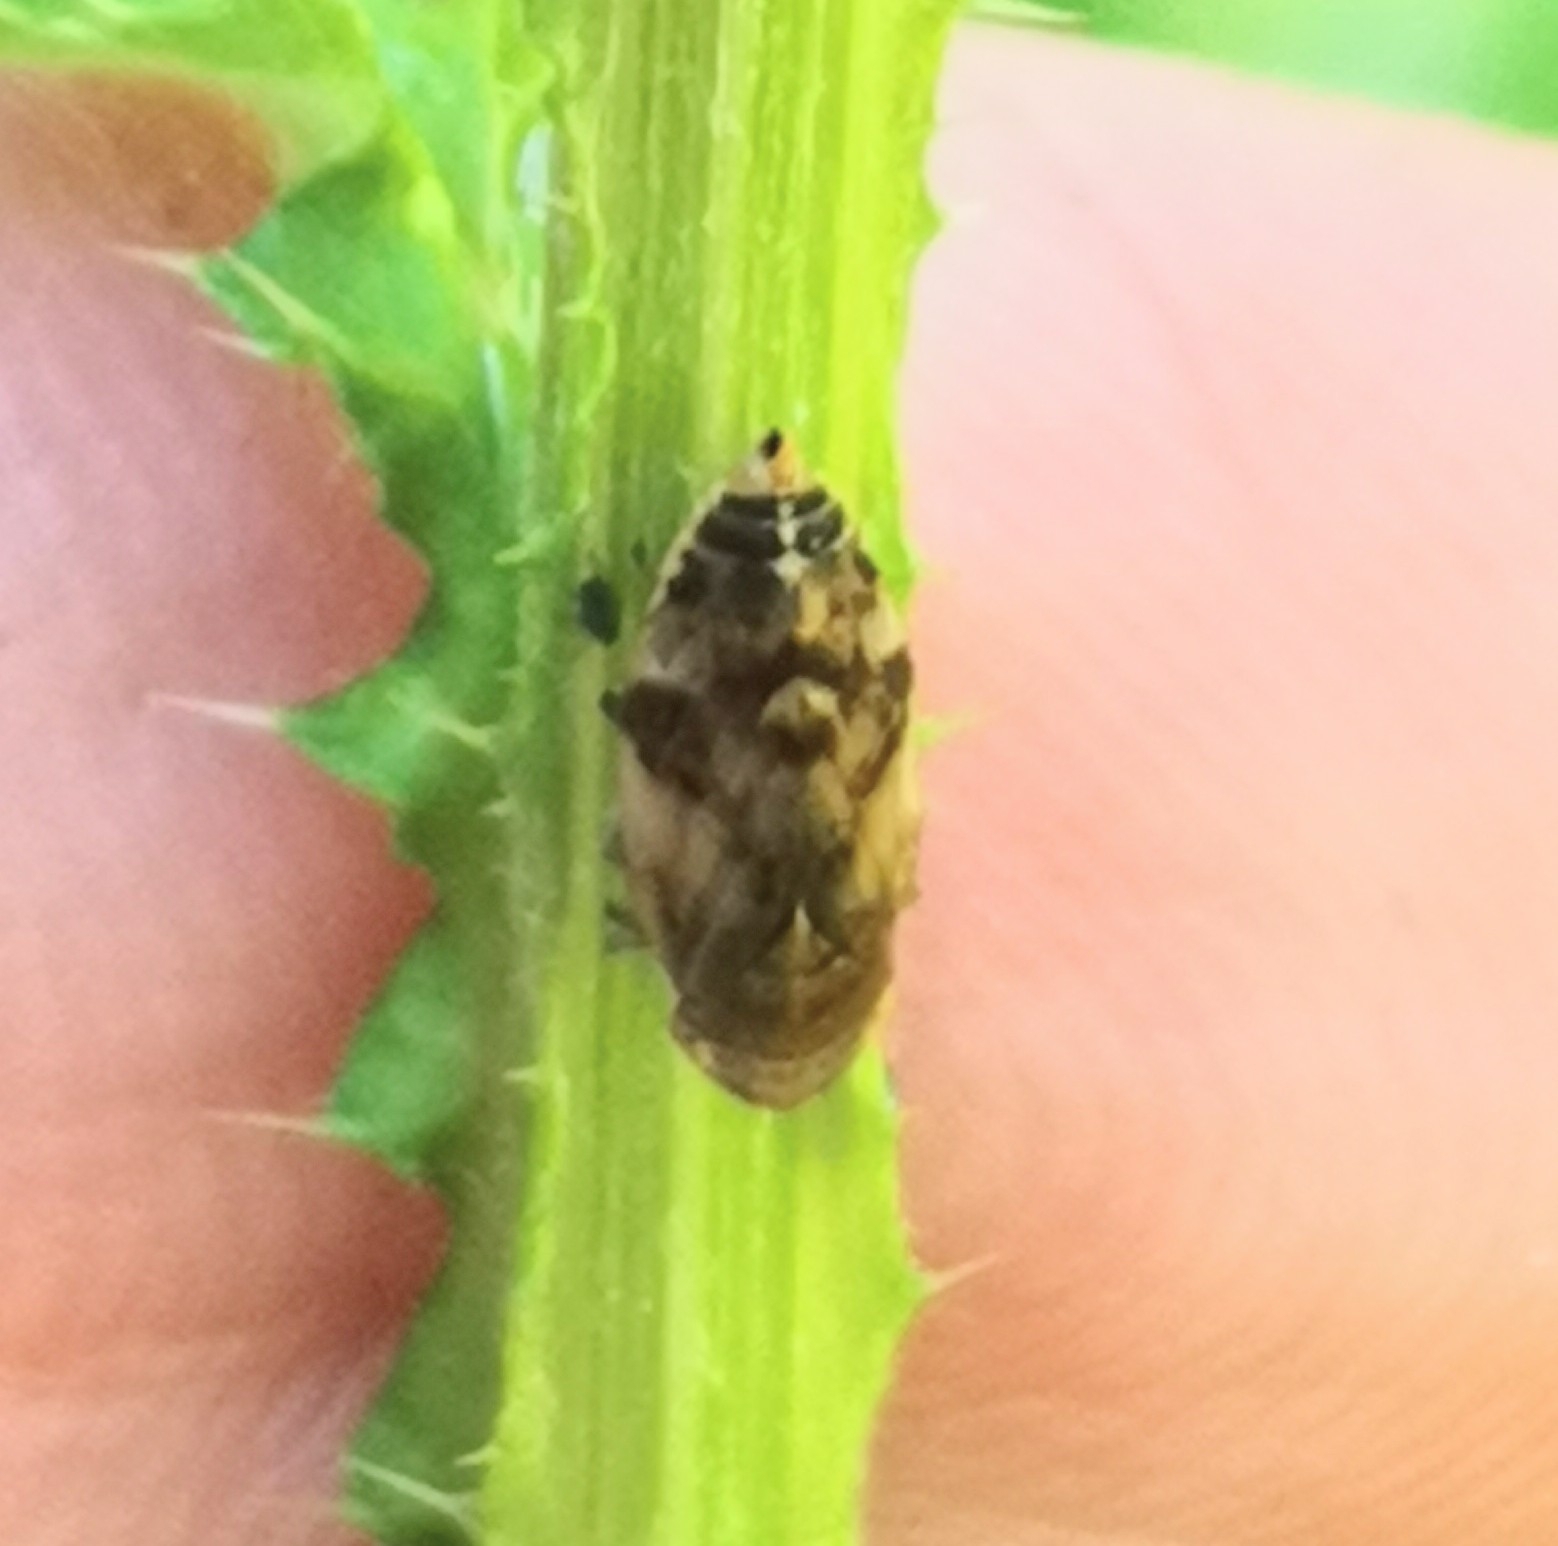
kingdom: Animalia
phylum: Arthropoda
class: Insecta
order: Hemiptera
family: Aphrophoridae
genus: Philaenus
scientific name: Philaenus spumarius
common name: Meadow spittlebug
